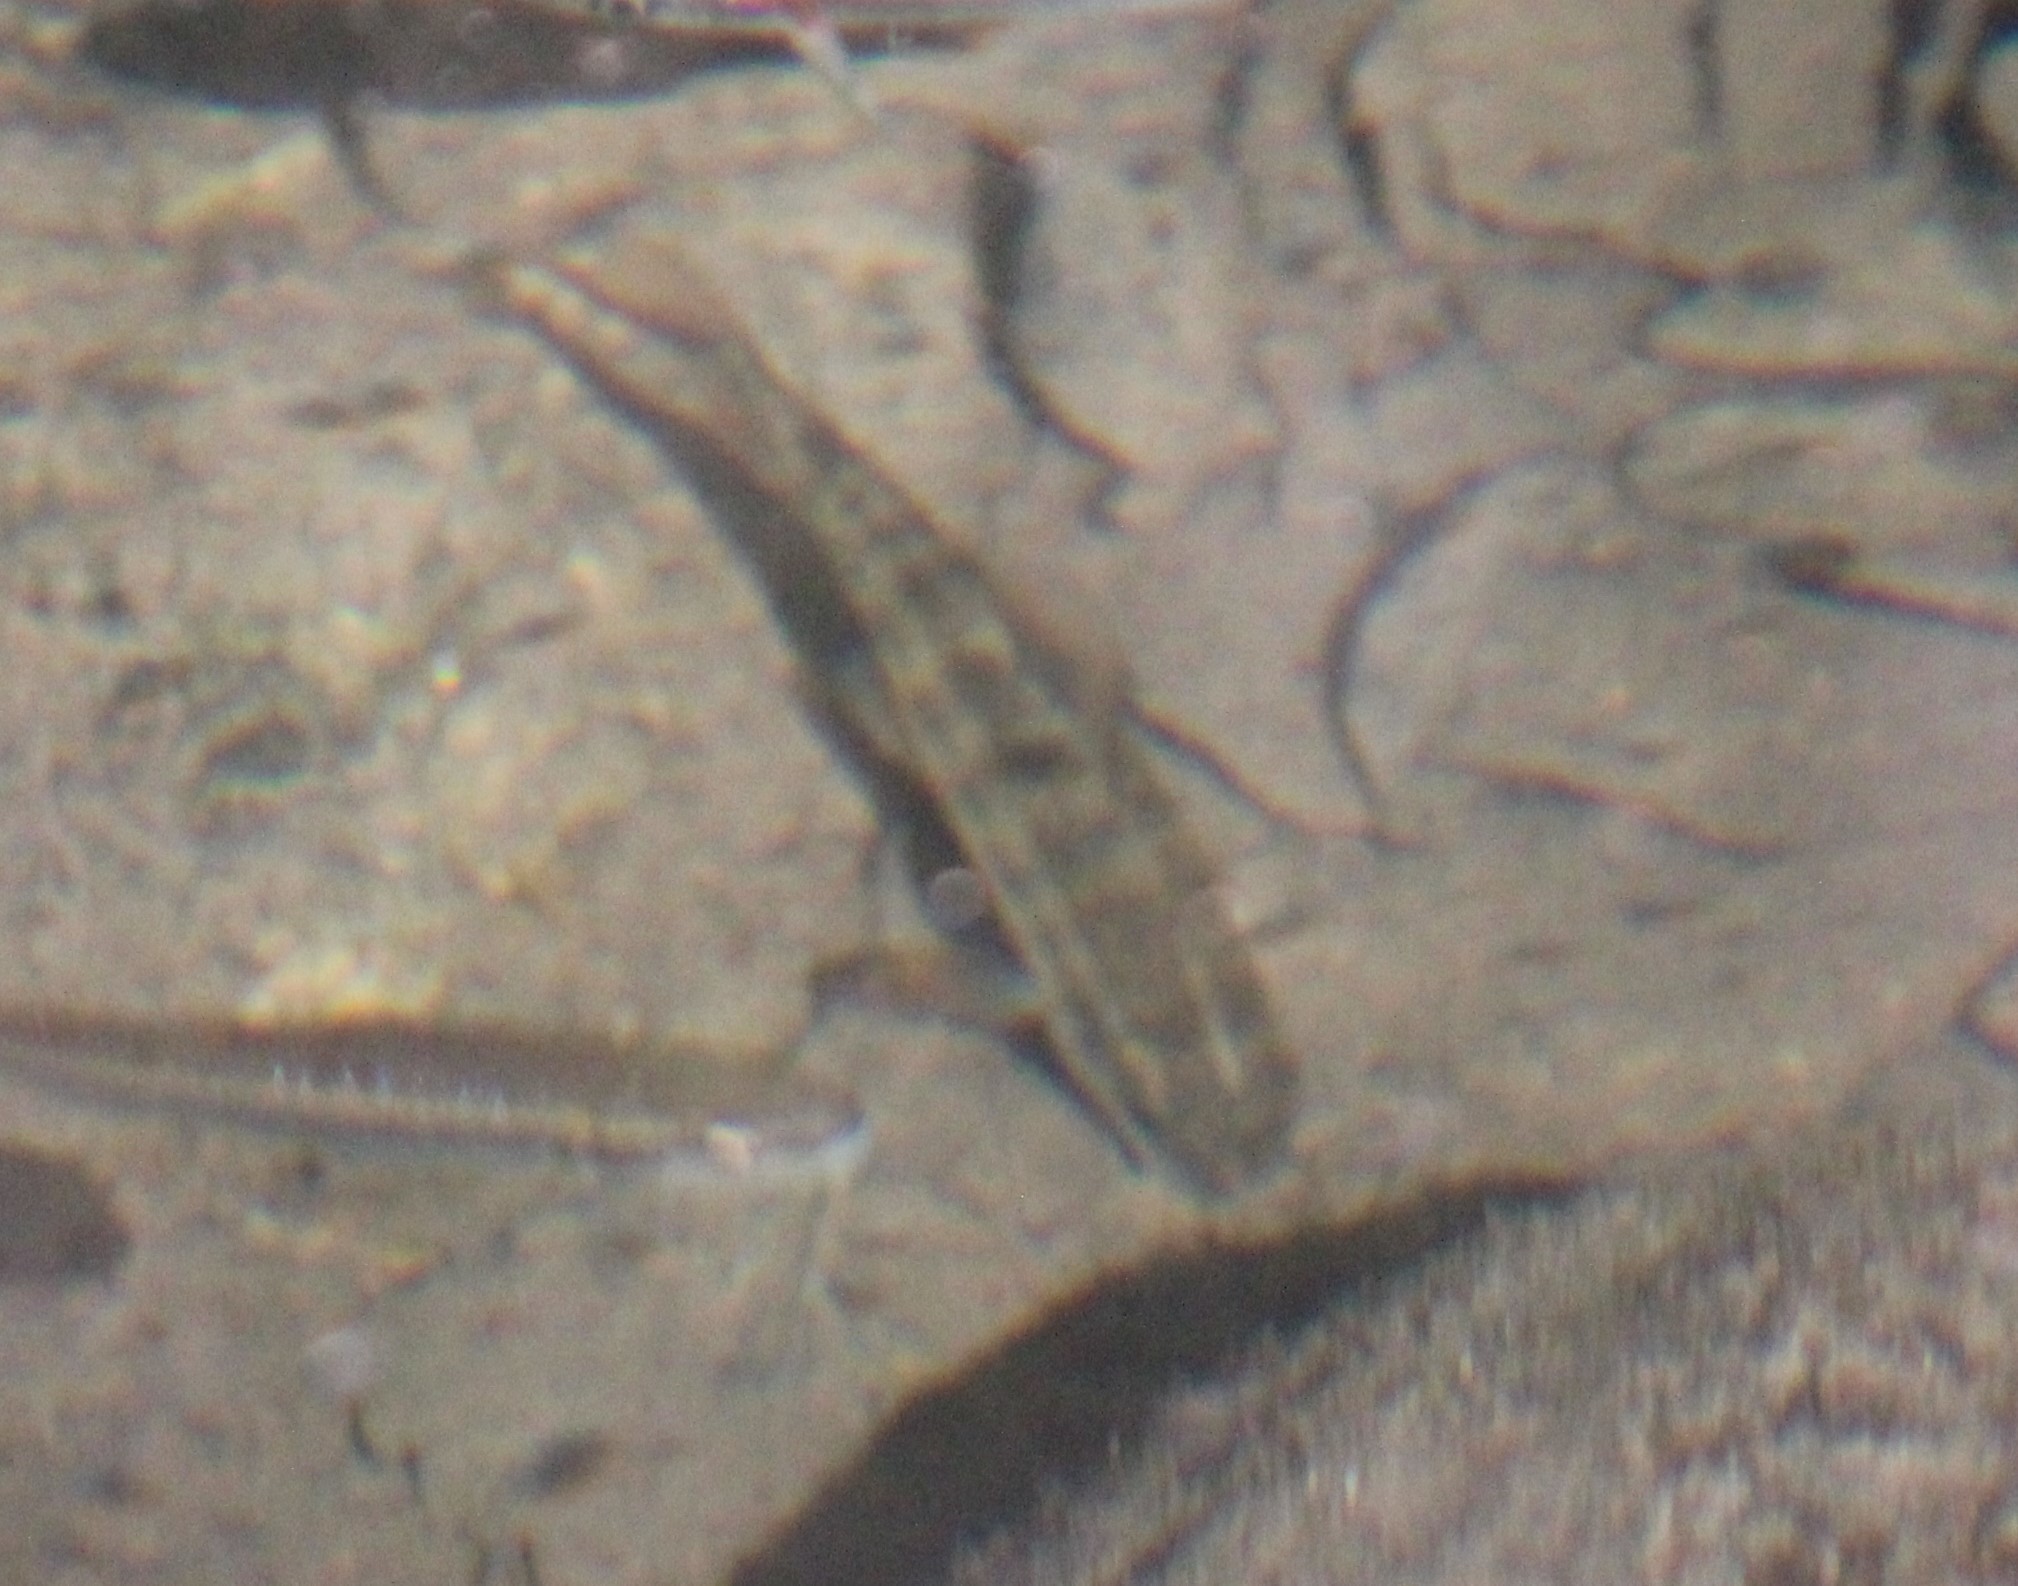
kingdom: Animalia
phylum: Chordata
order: Cypriniformes
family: Catostomidae
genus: Erimyzon
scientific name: Erimyzon oblongus
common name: Eastern creek chubsucker
